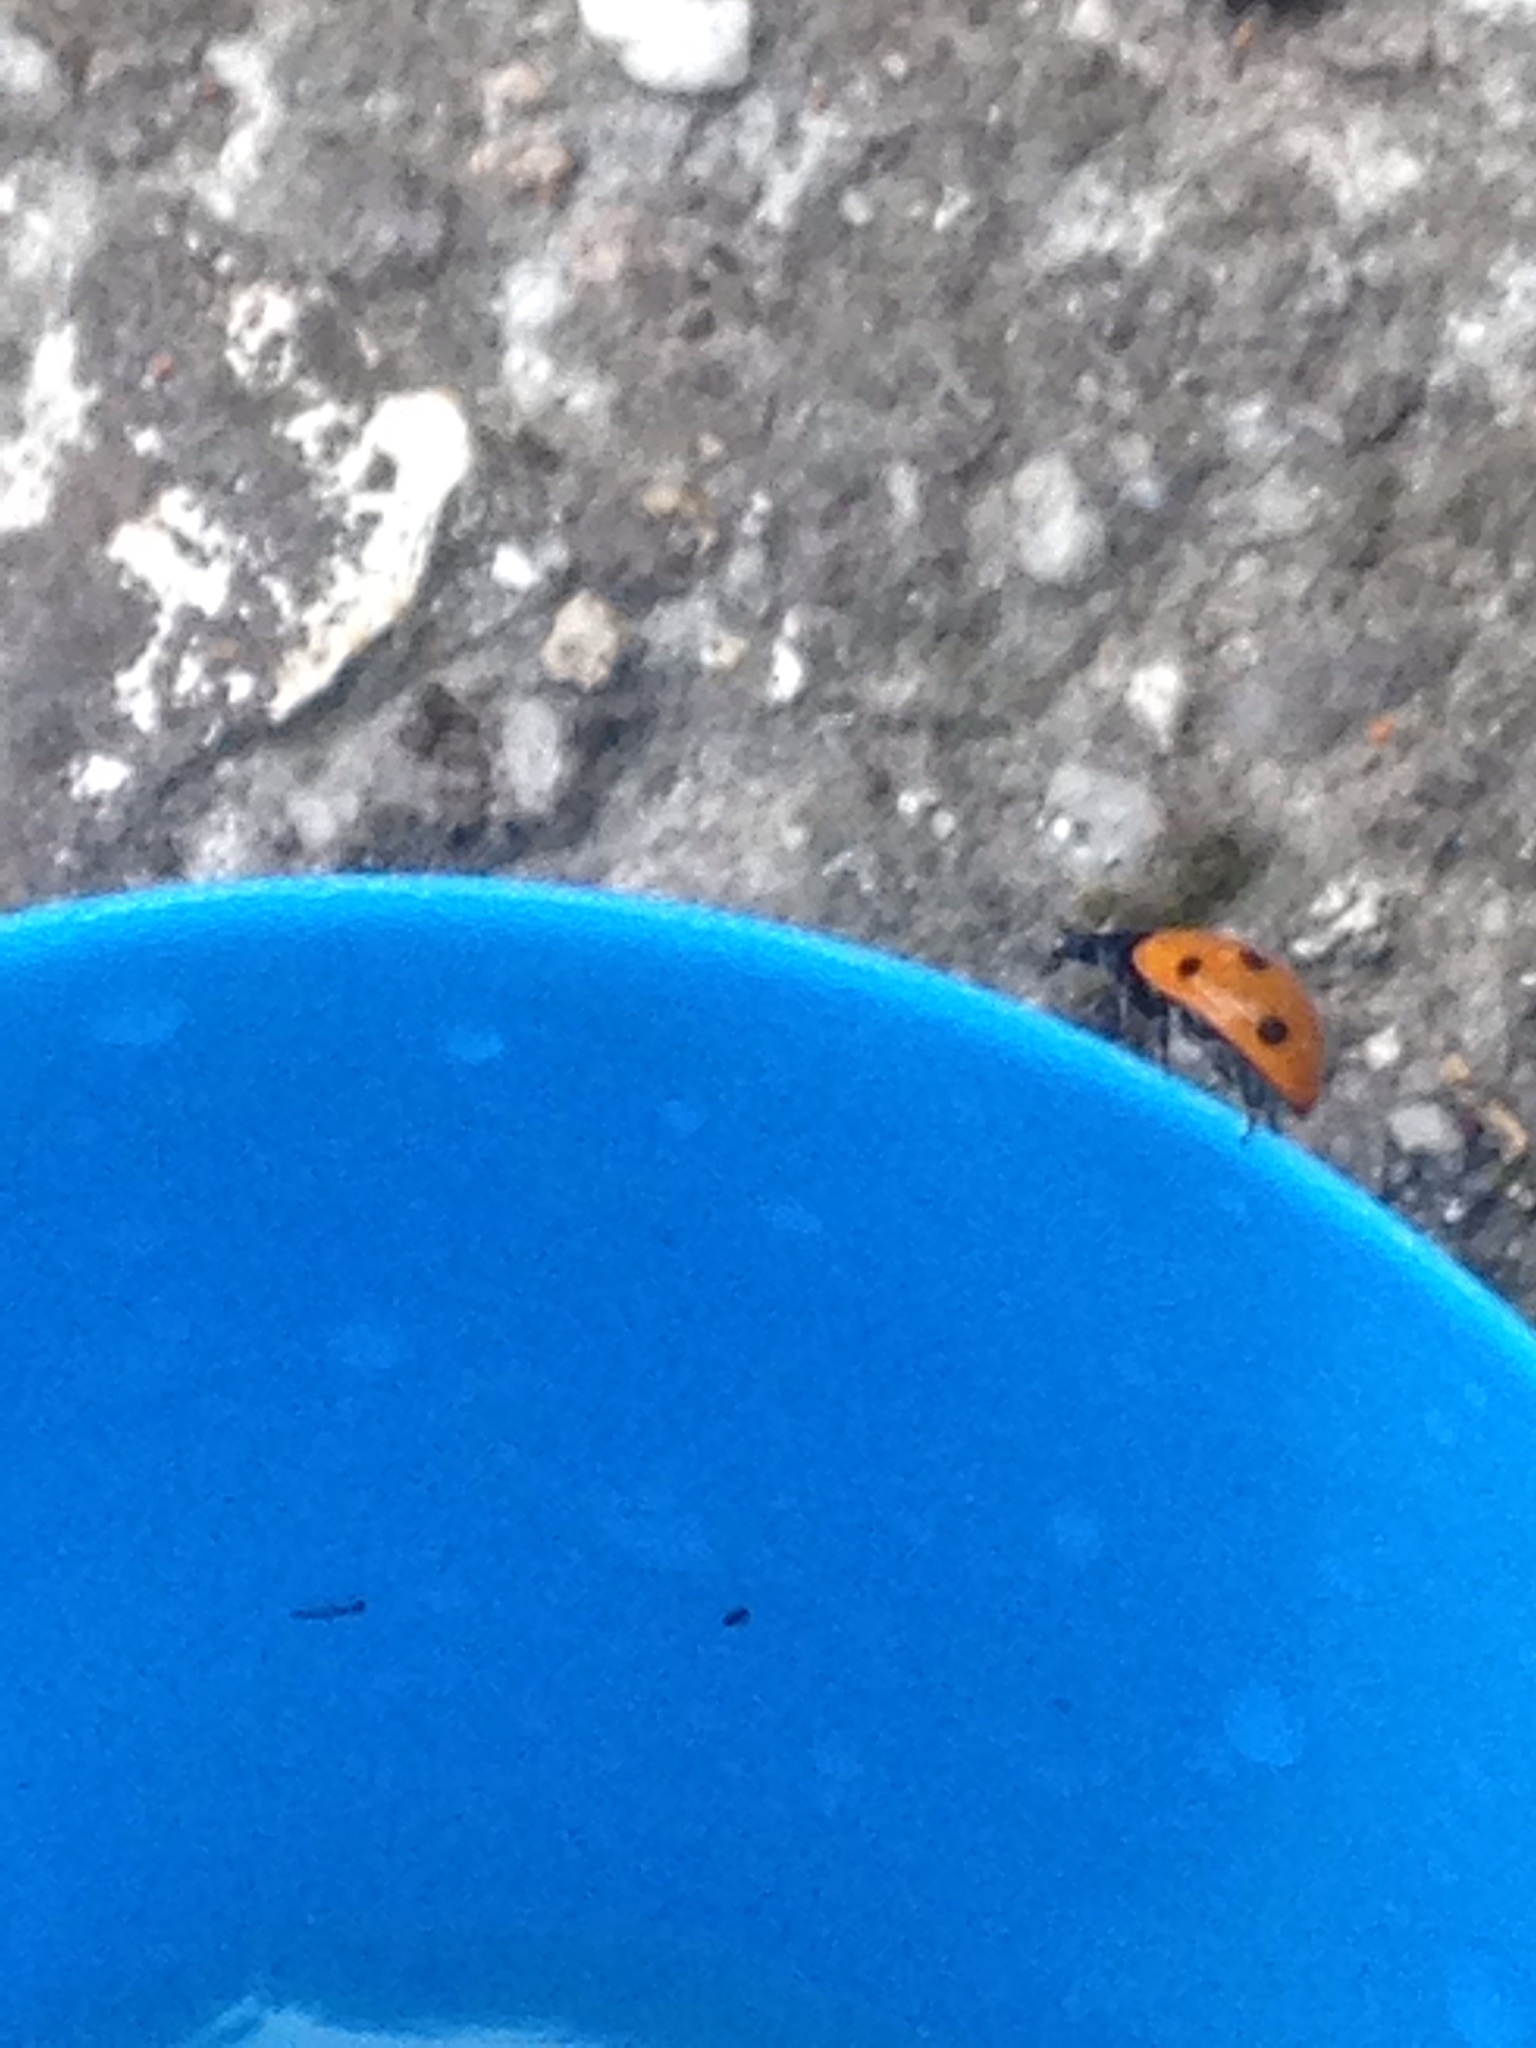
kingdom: Animalia
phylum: Arthropoda
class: Insecta
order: Coleoptera
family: Coccinellidae
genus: Coccinella
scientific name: Coccinella septempunctata
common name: Sevenspotted lady beetle
